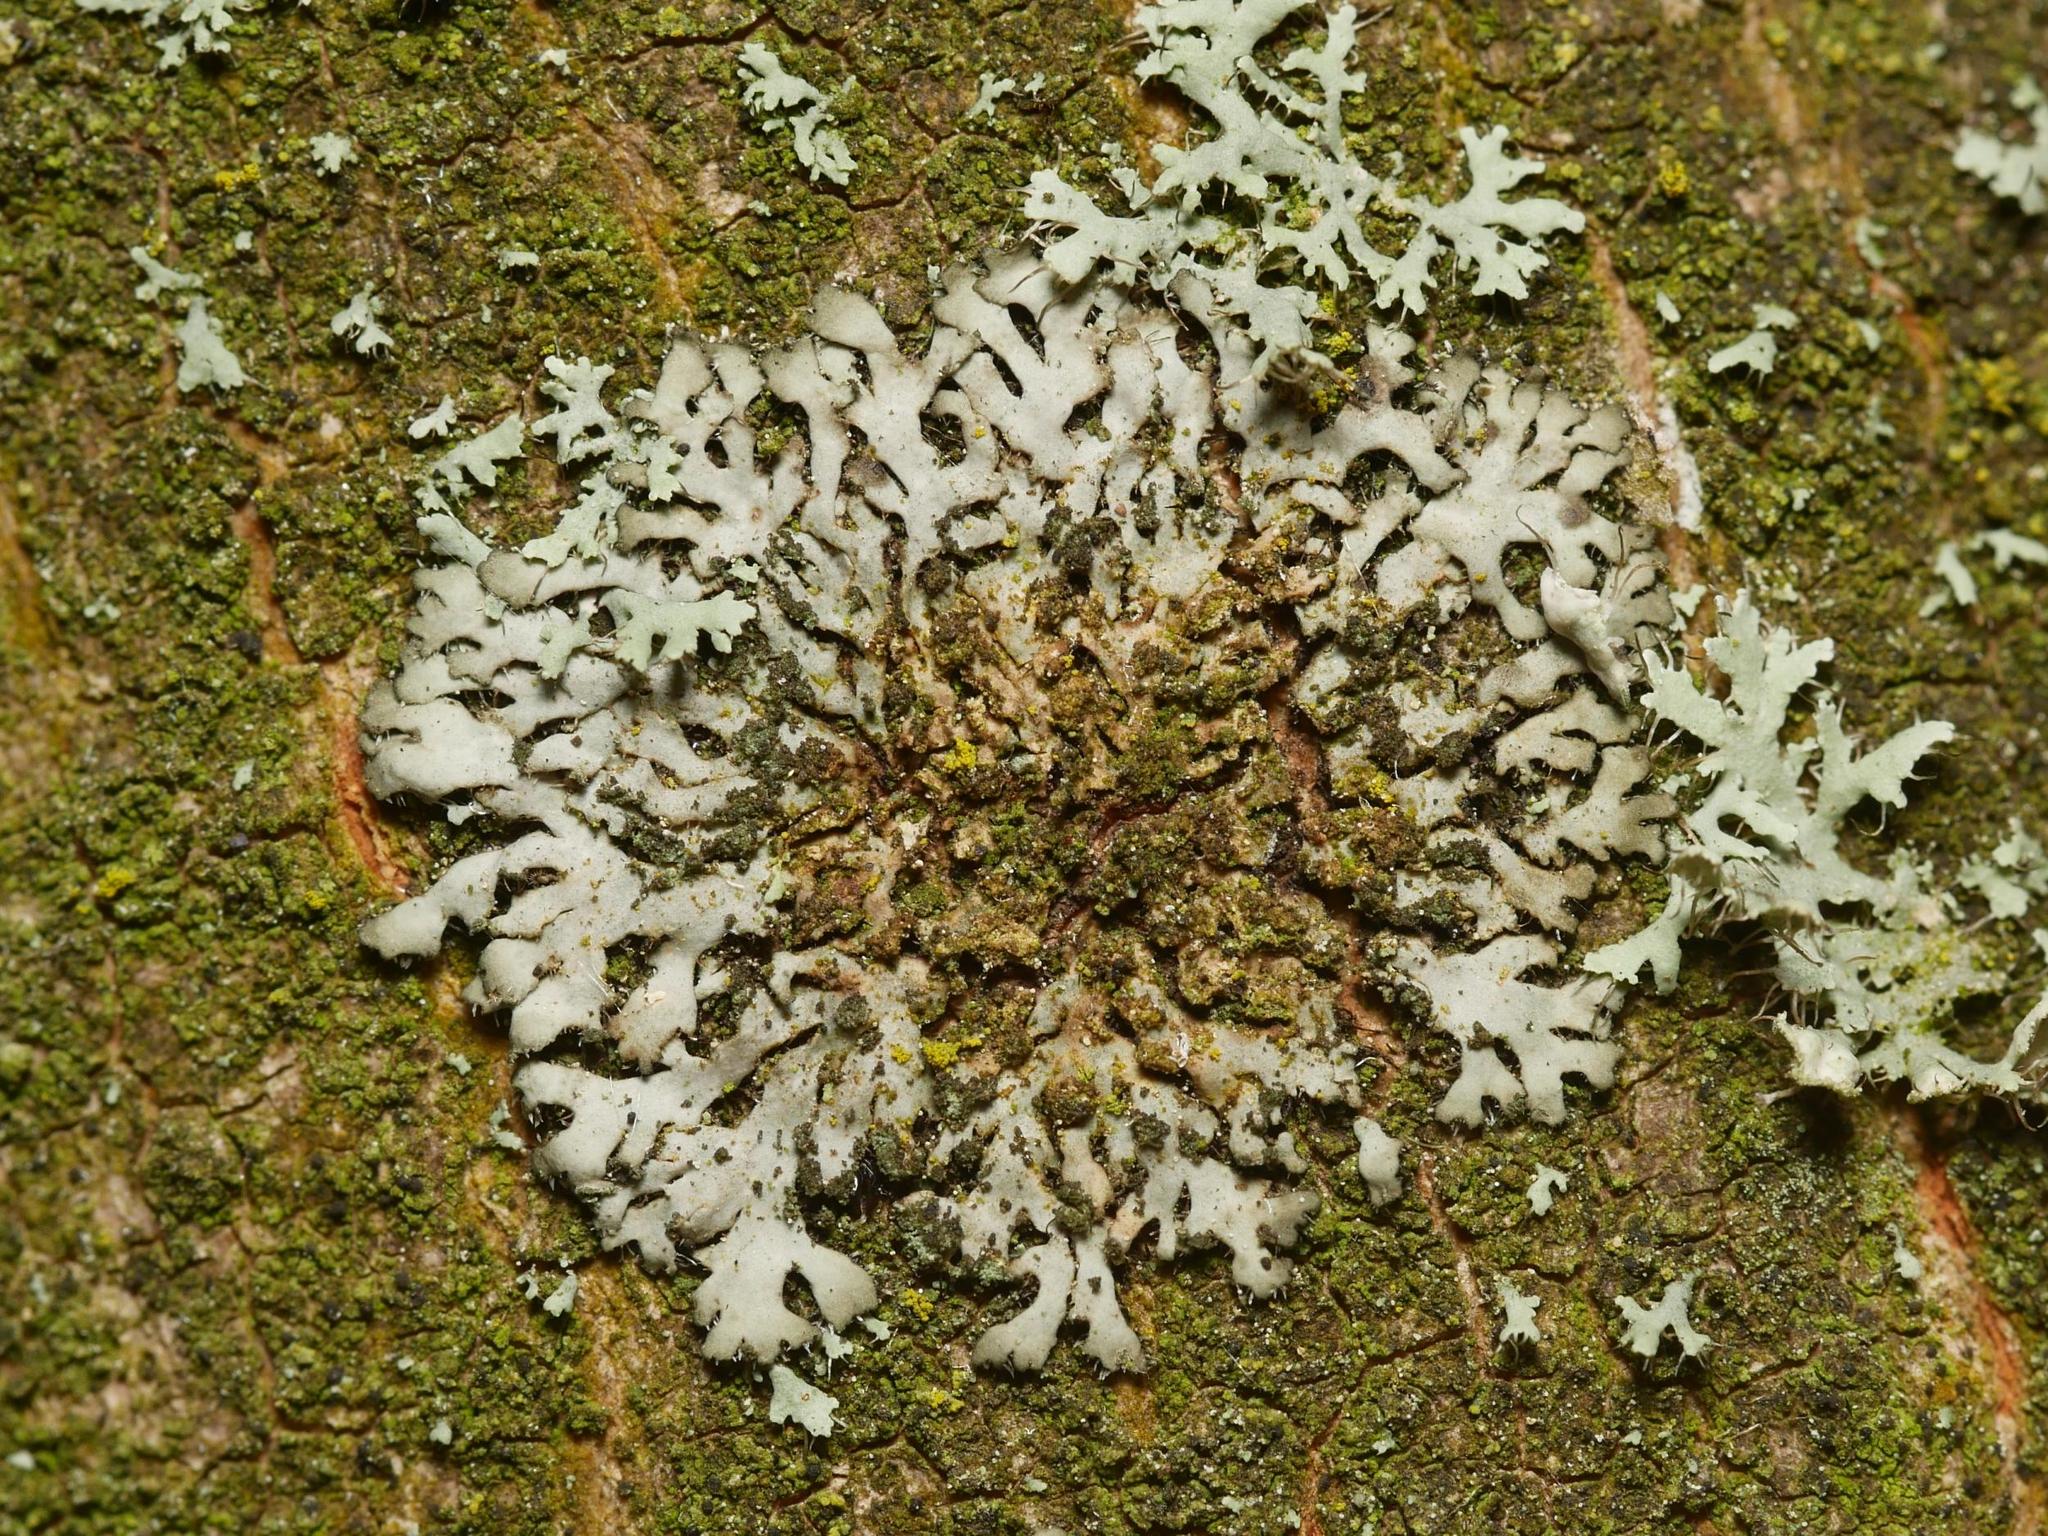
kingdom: Fungi
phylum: Ascomycota
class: Lecanoromycetes
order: Caliciales
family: Physciaceae
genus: Phaeophyscia
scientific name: Phaeophyscia orbicularis
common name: Mealy shadow lichen
